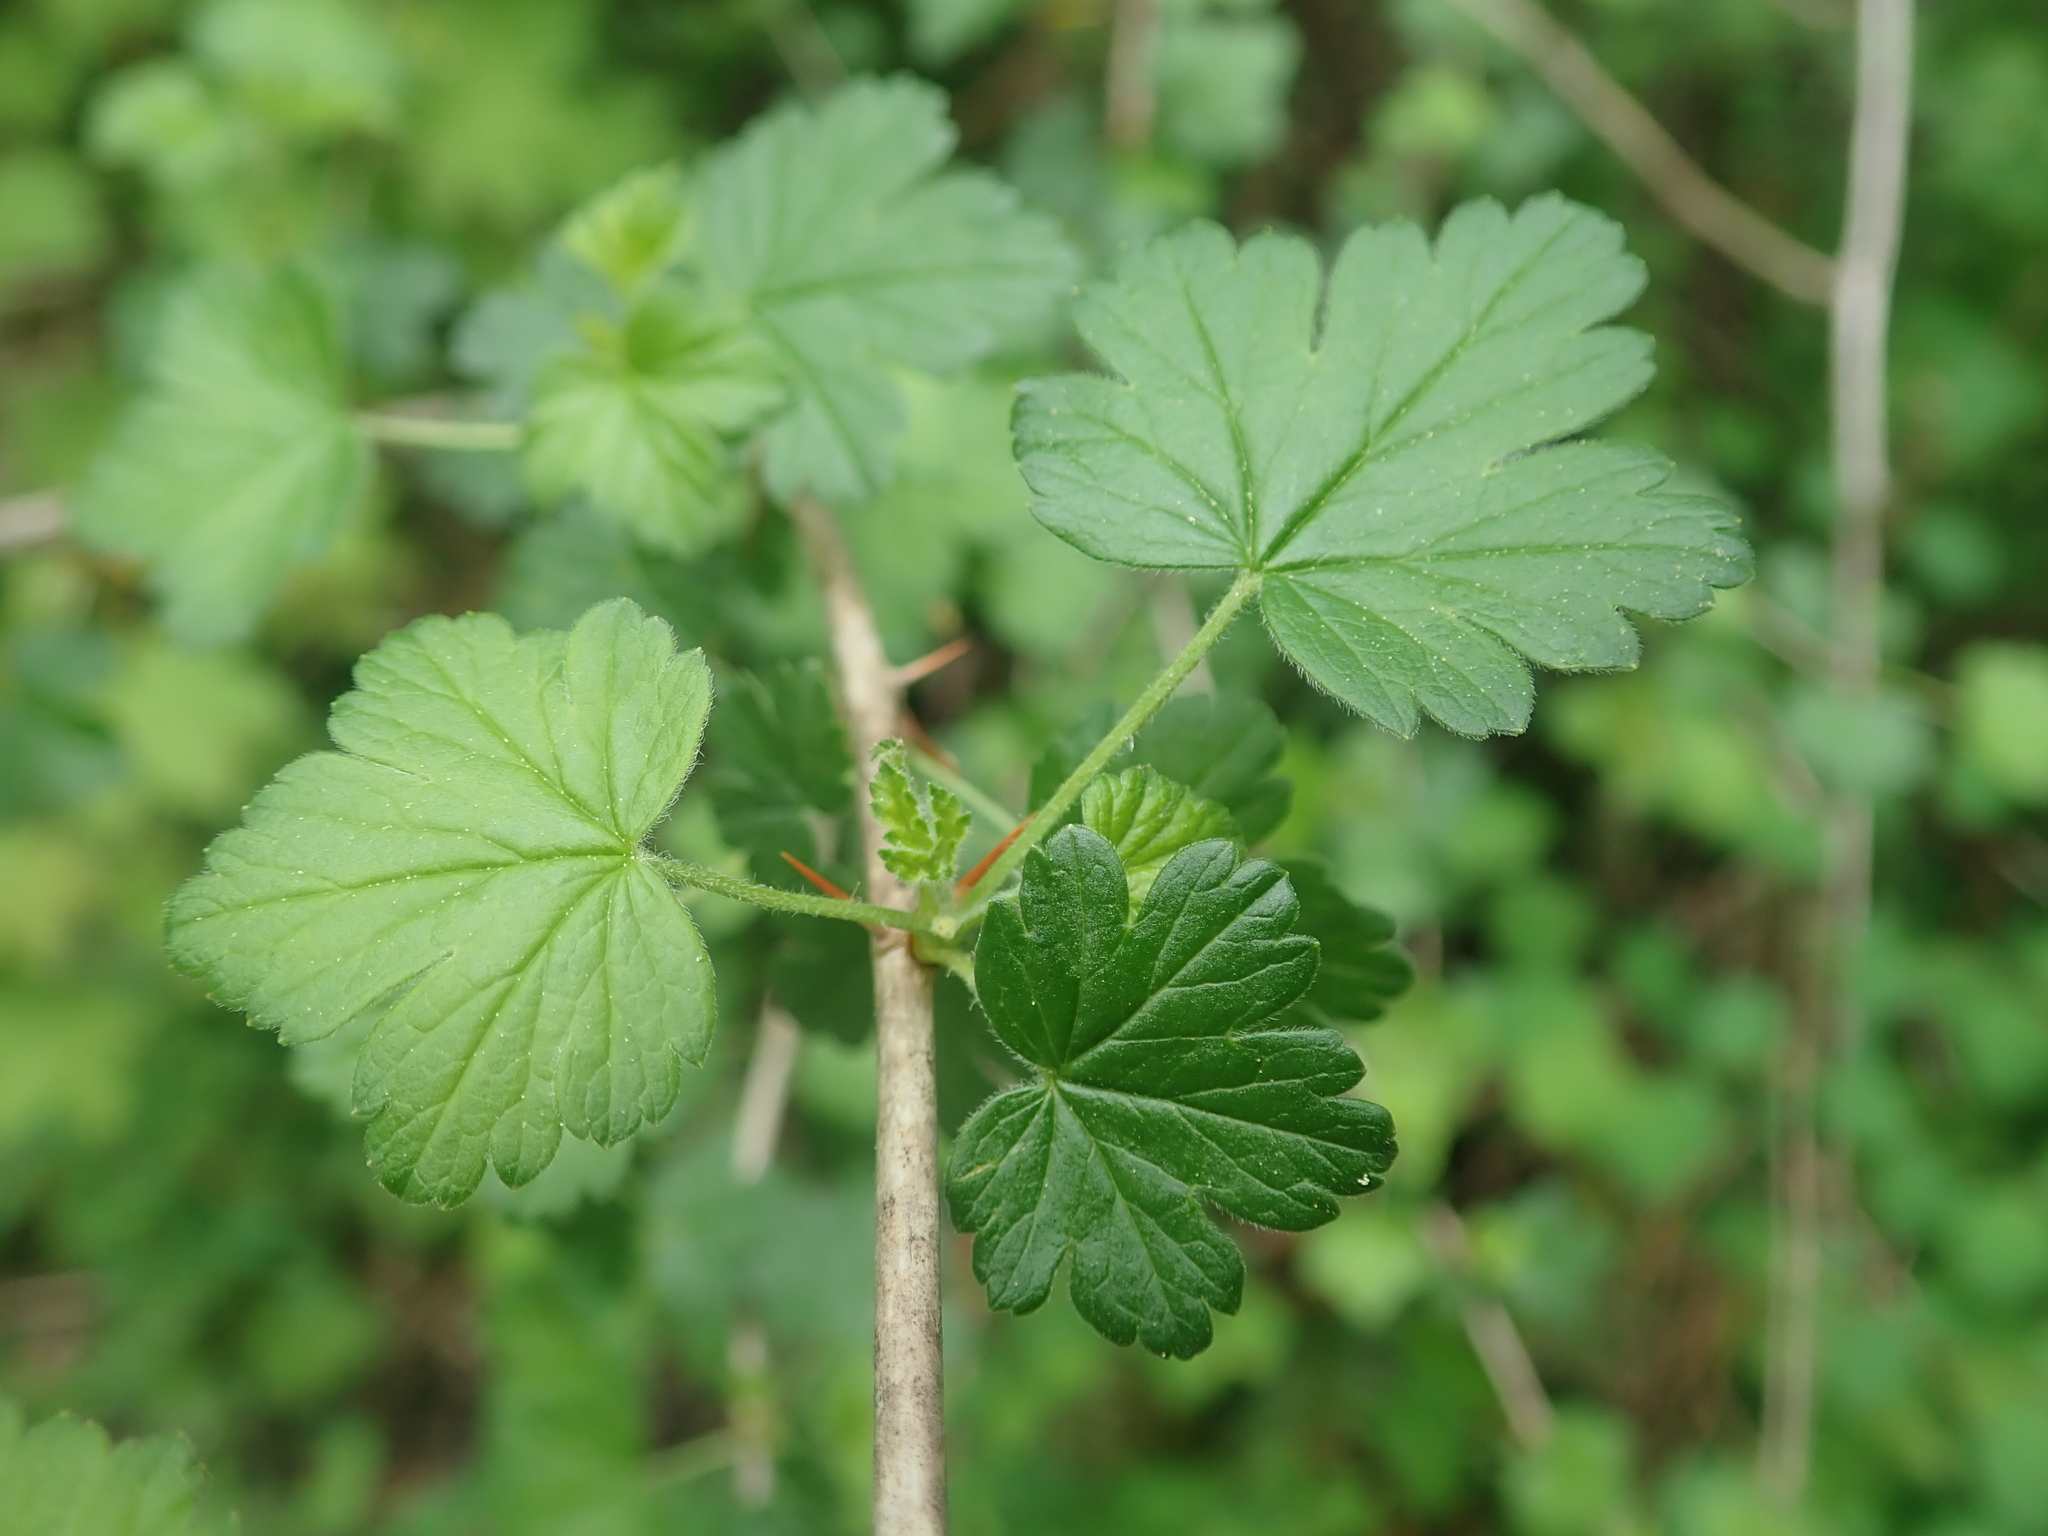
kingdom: Plantae
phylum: Tracheophyta
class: Magnoliopsida
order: Saxifragales
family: Grossulariaceae
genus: Ribes
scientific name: Ribes divaricatum
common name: Wild black gooseberry
